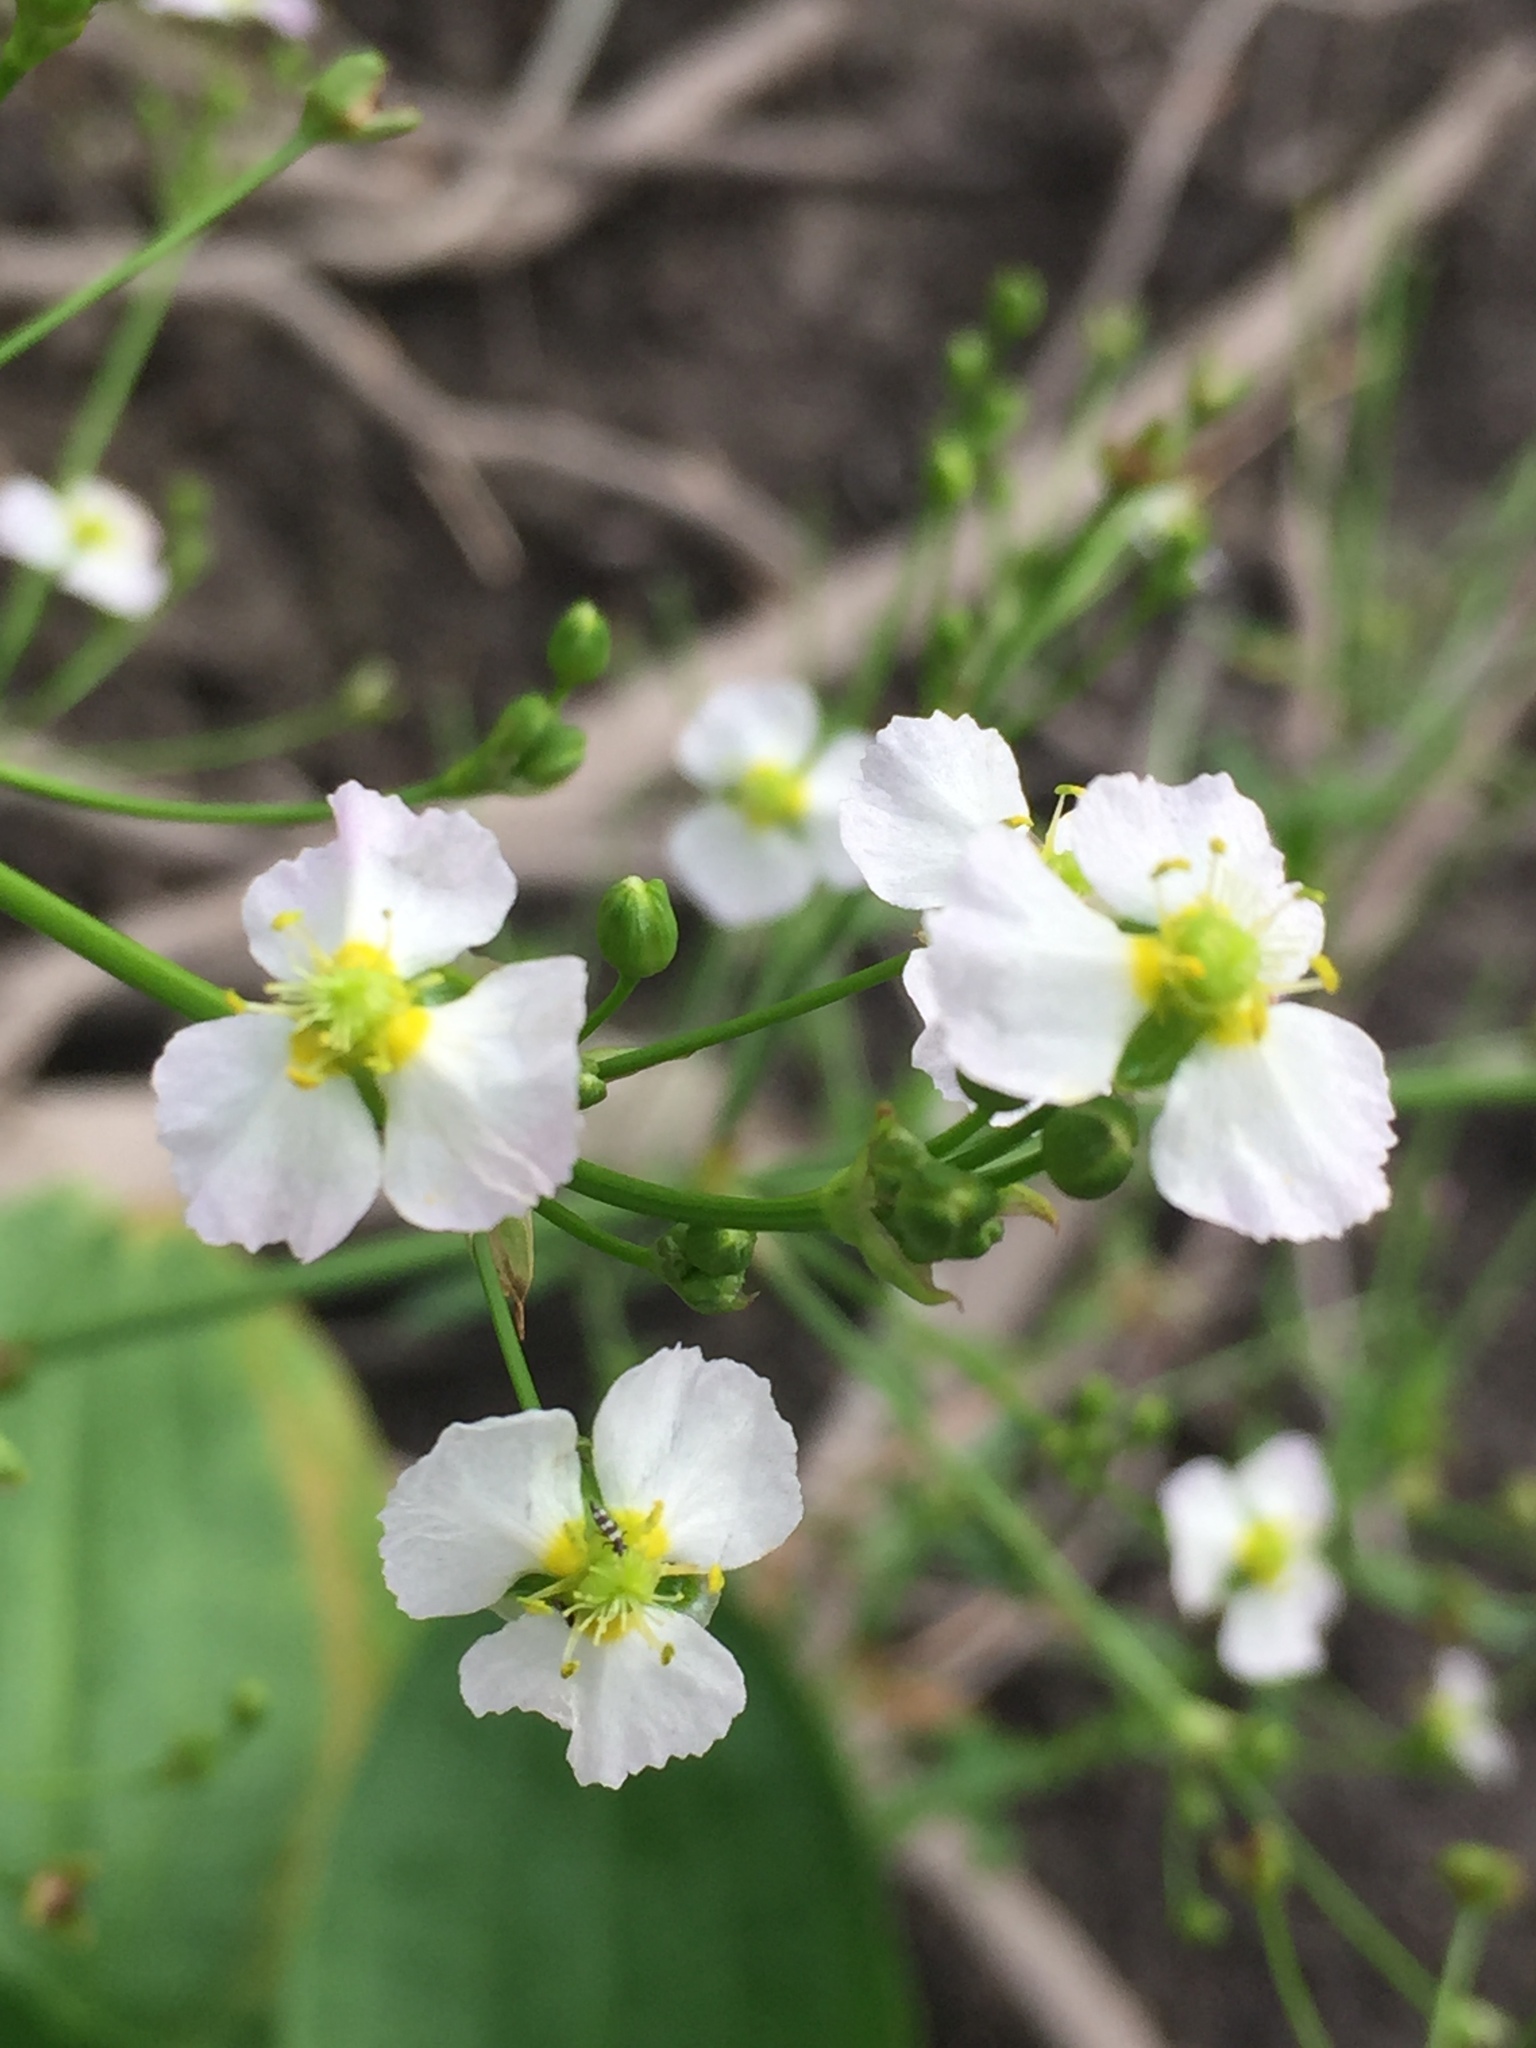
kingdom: Plantae
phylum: Tracheophyta
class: Liliopsida
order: Alismatales
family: Alismataceae
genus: Alisma
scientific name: Alisma plantago-aquatica
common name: Water-plantain
